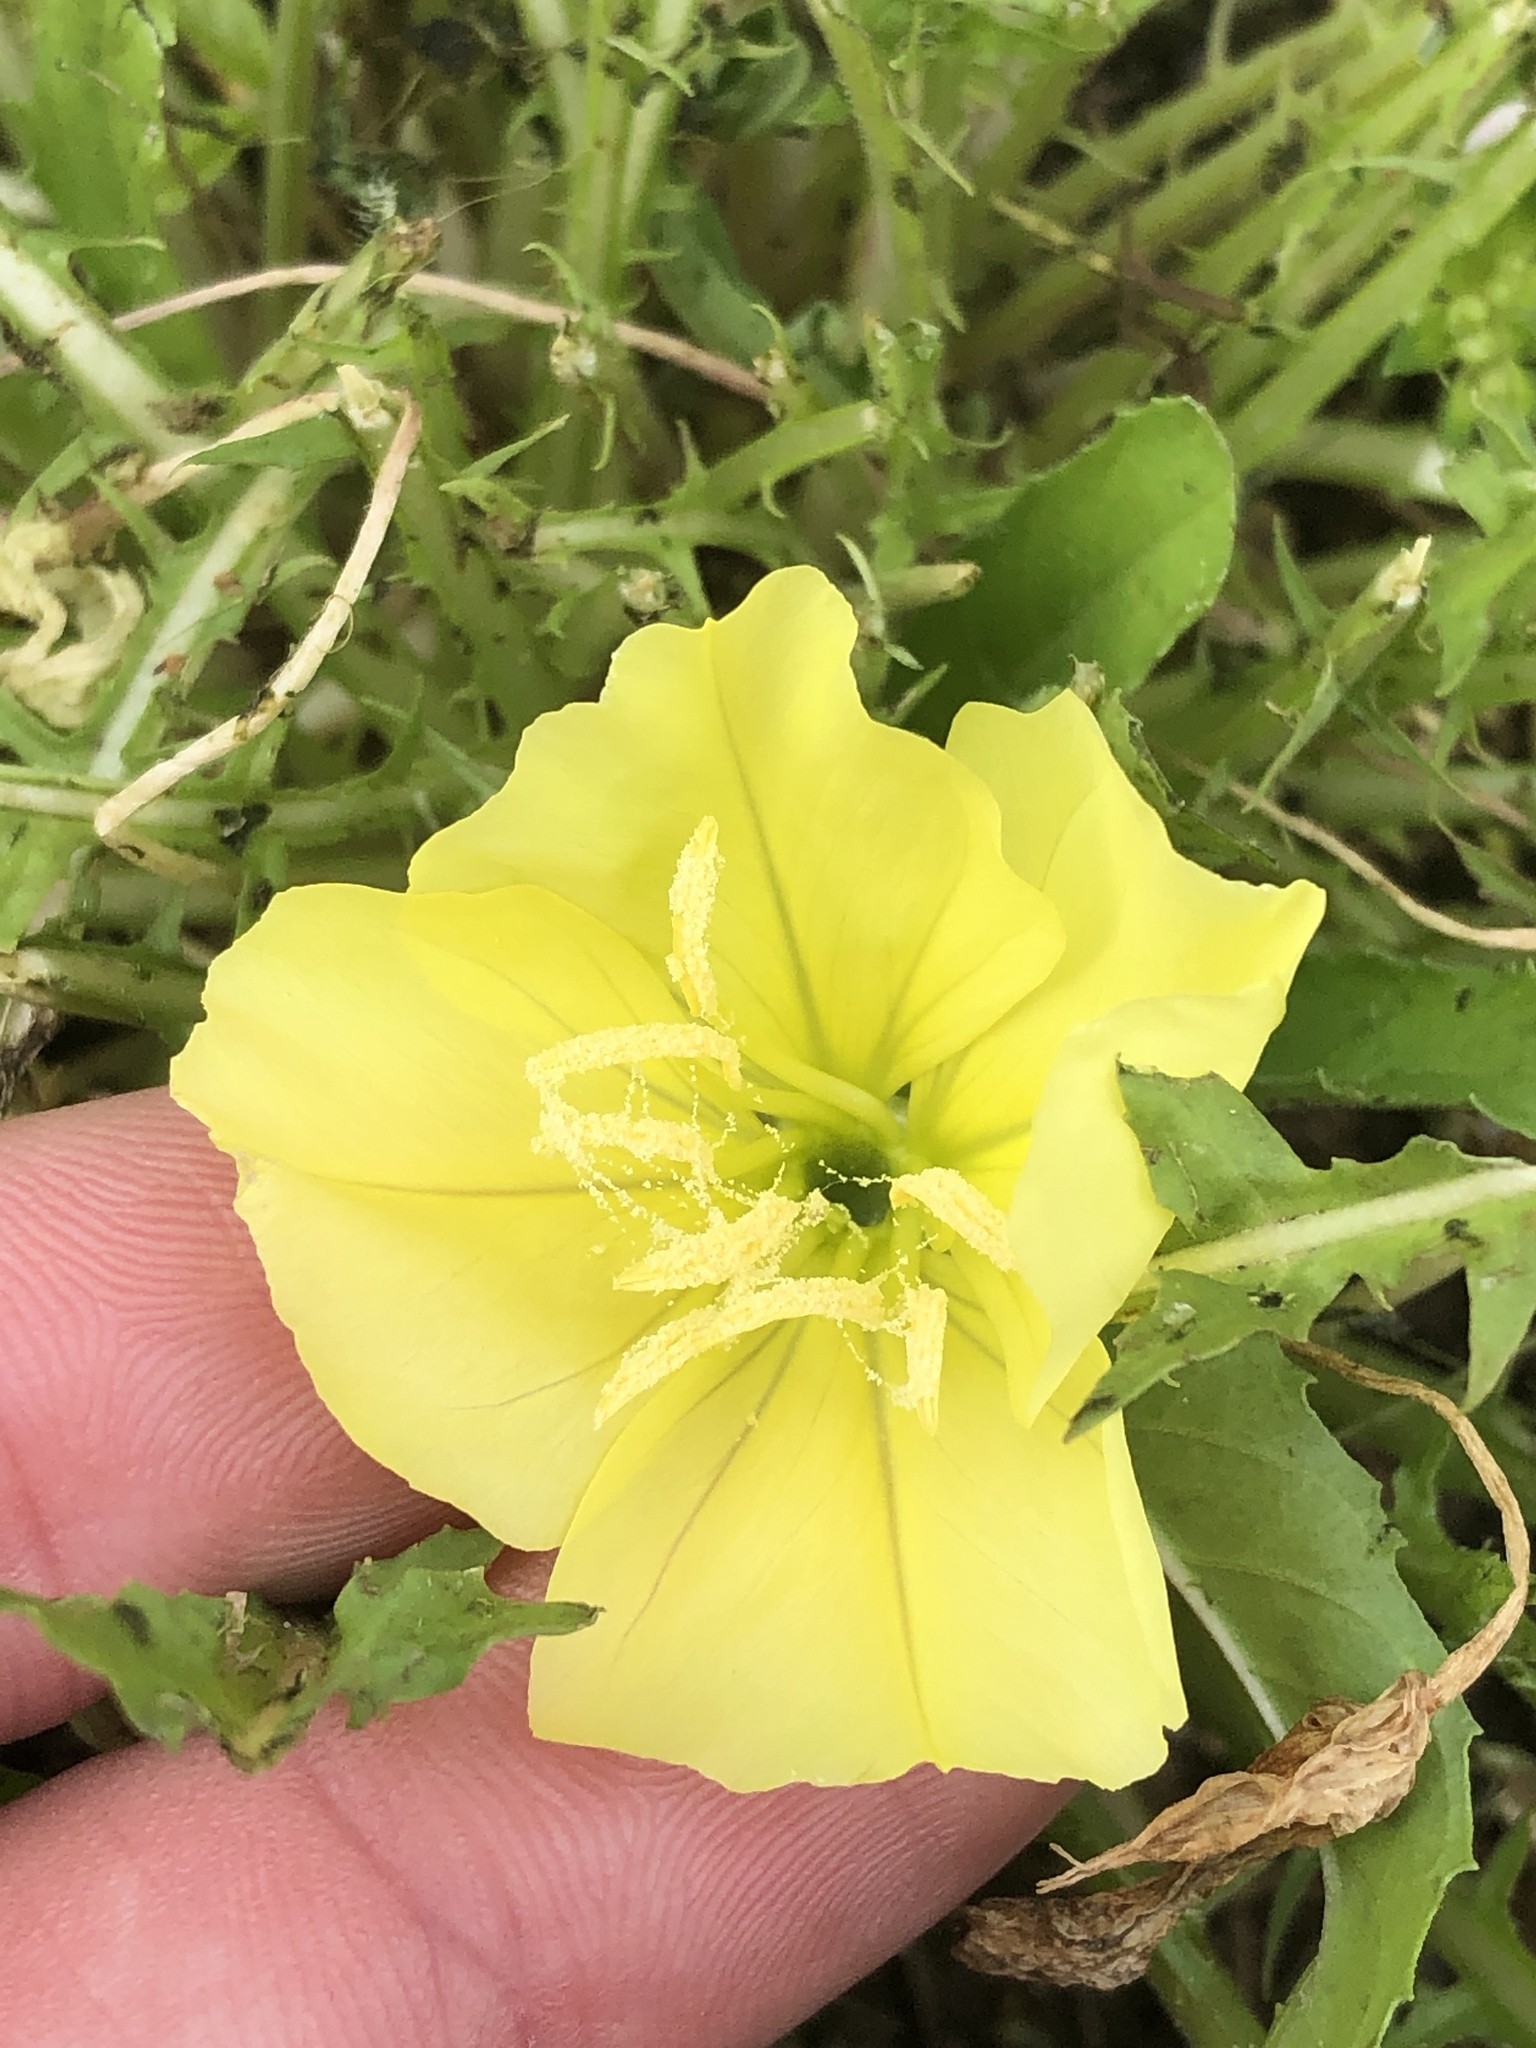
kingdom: Plantae
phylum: Tracheophyta
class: Magnoliopsida
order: Myrtales
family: Onagraceae
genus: Oenothera
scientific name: Oenothera triloba
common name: Sessile evening-primrose
